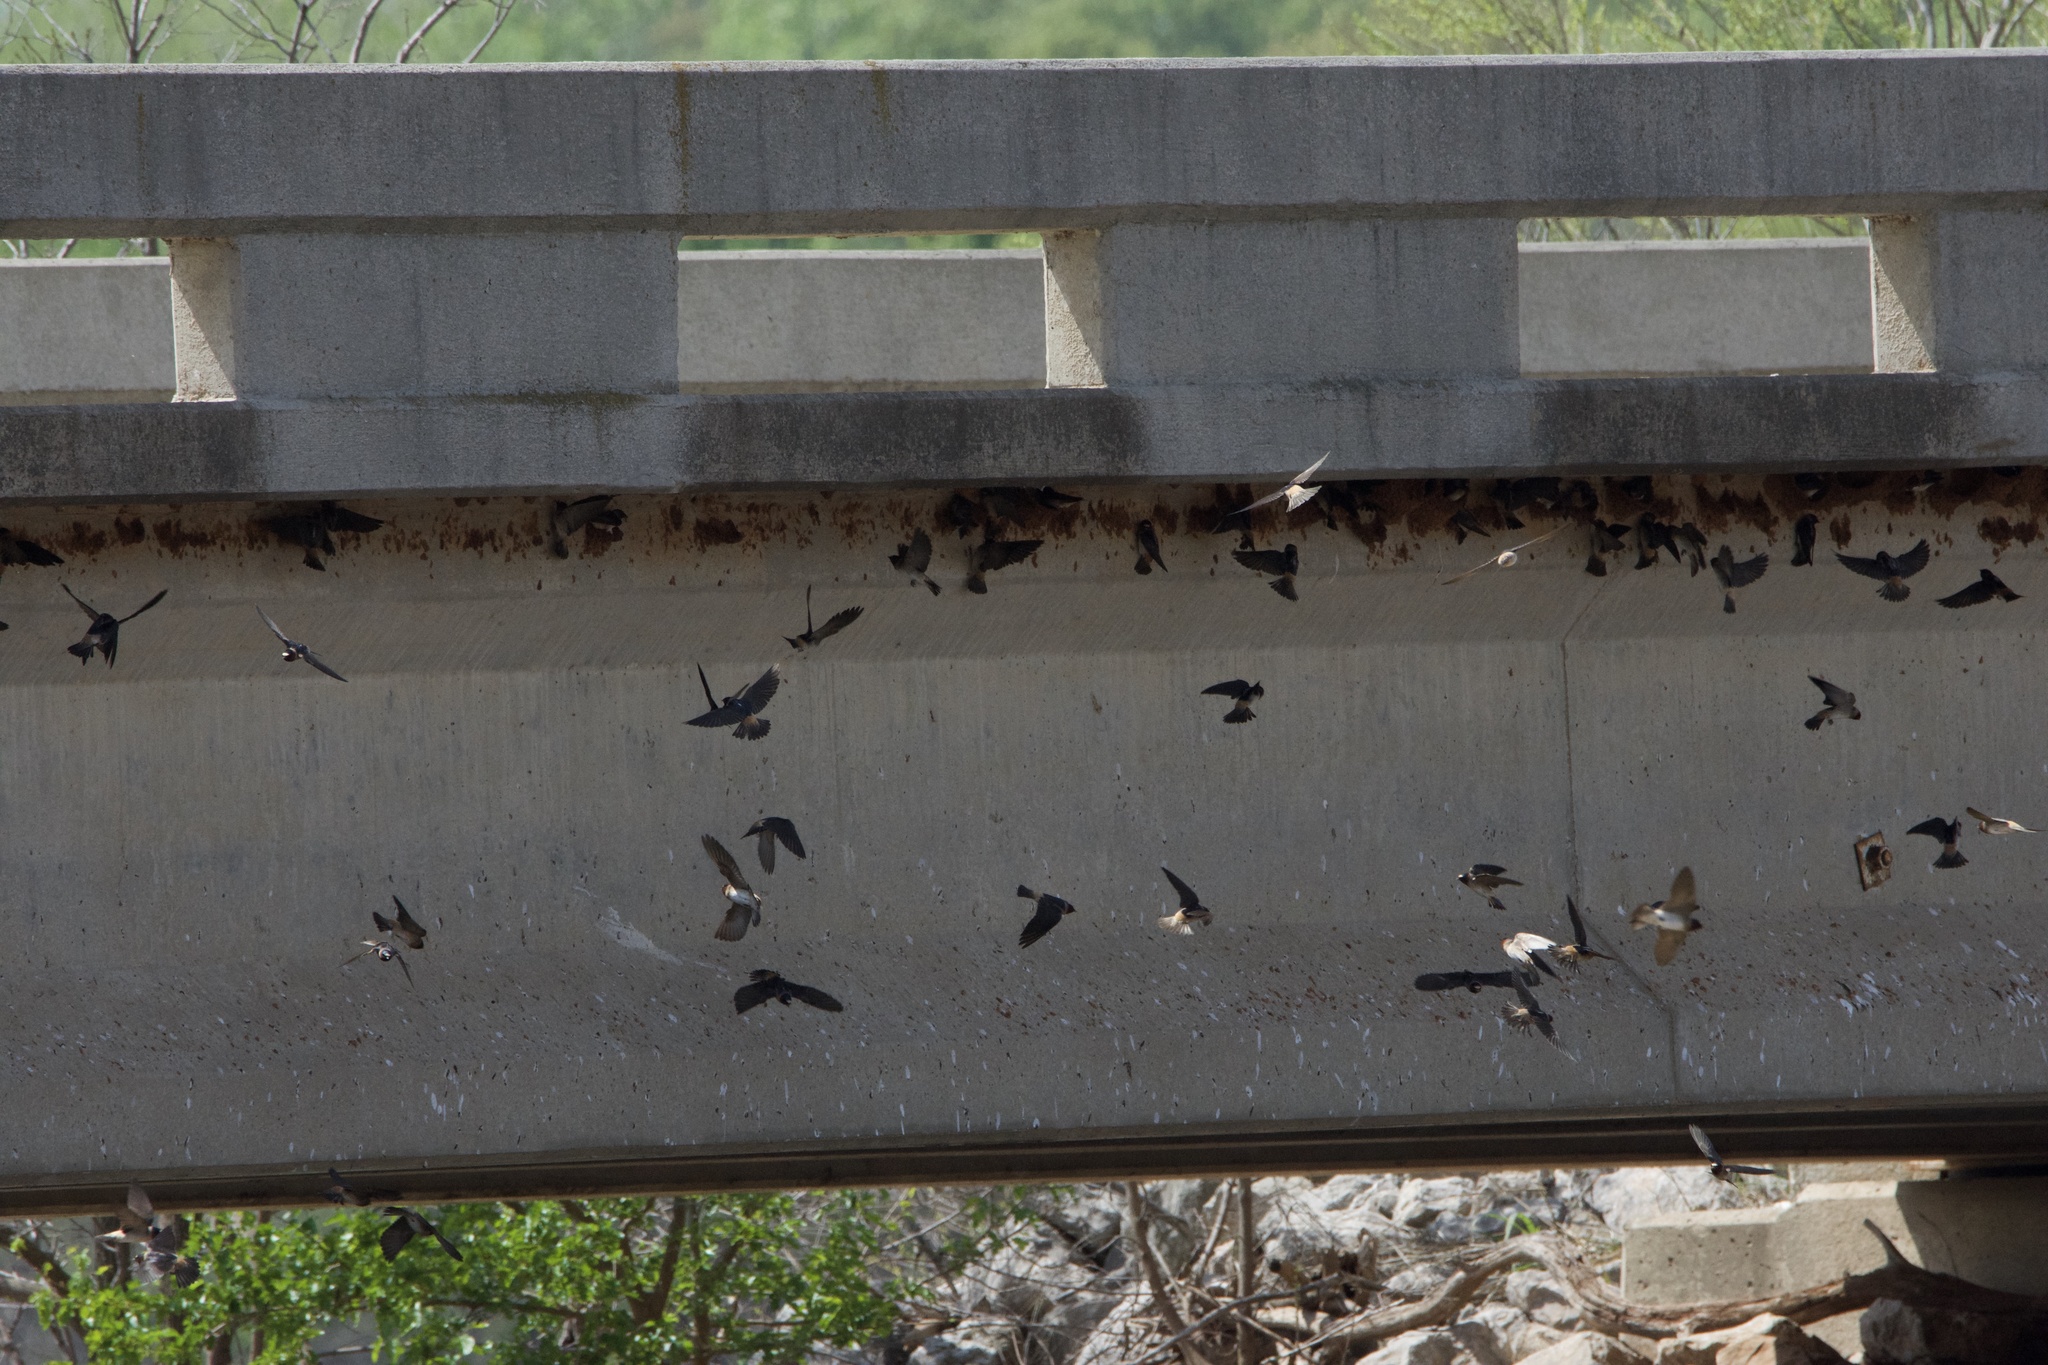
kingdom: Animalia
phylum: Chordata
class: Aves
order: Passeriformes
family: Hirundinidae
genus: Petrochelidon
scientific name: Petrochelidon pyrrhonota
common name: American cliff swallow
